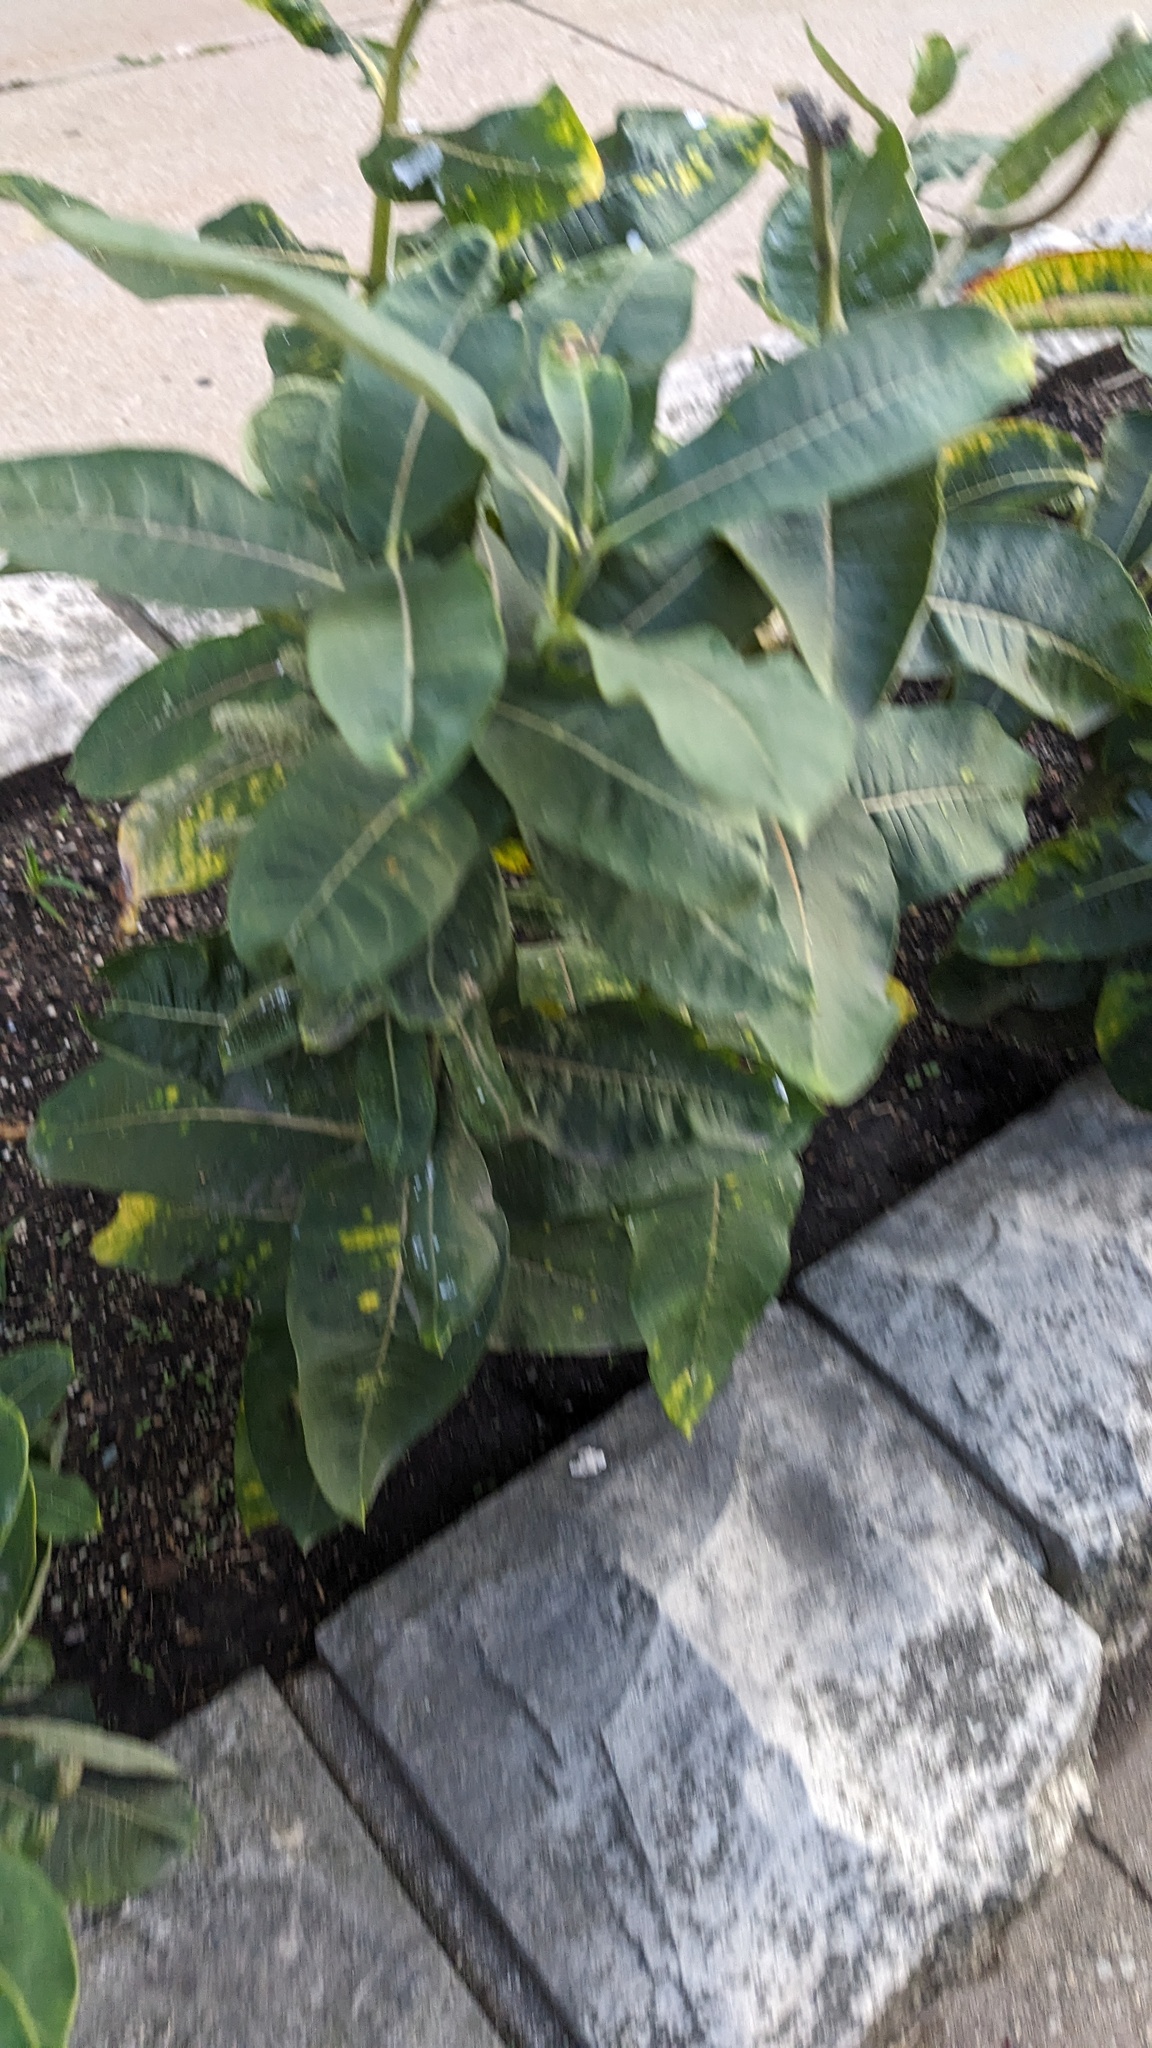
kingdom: Animalia
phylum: Arthropoda
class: Insecta
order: Hemiptera
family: Aphididae
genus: Aphis
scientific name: Aphis nerii
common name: Oleander aphid
